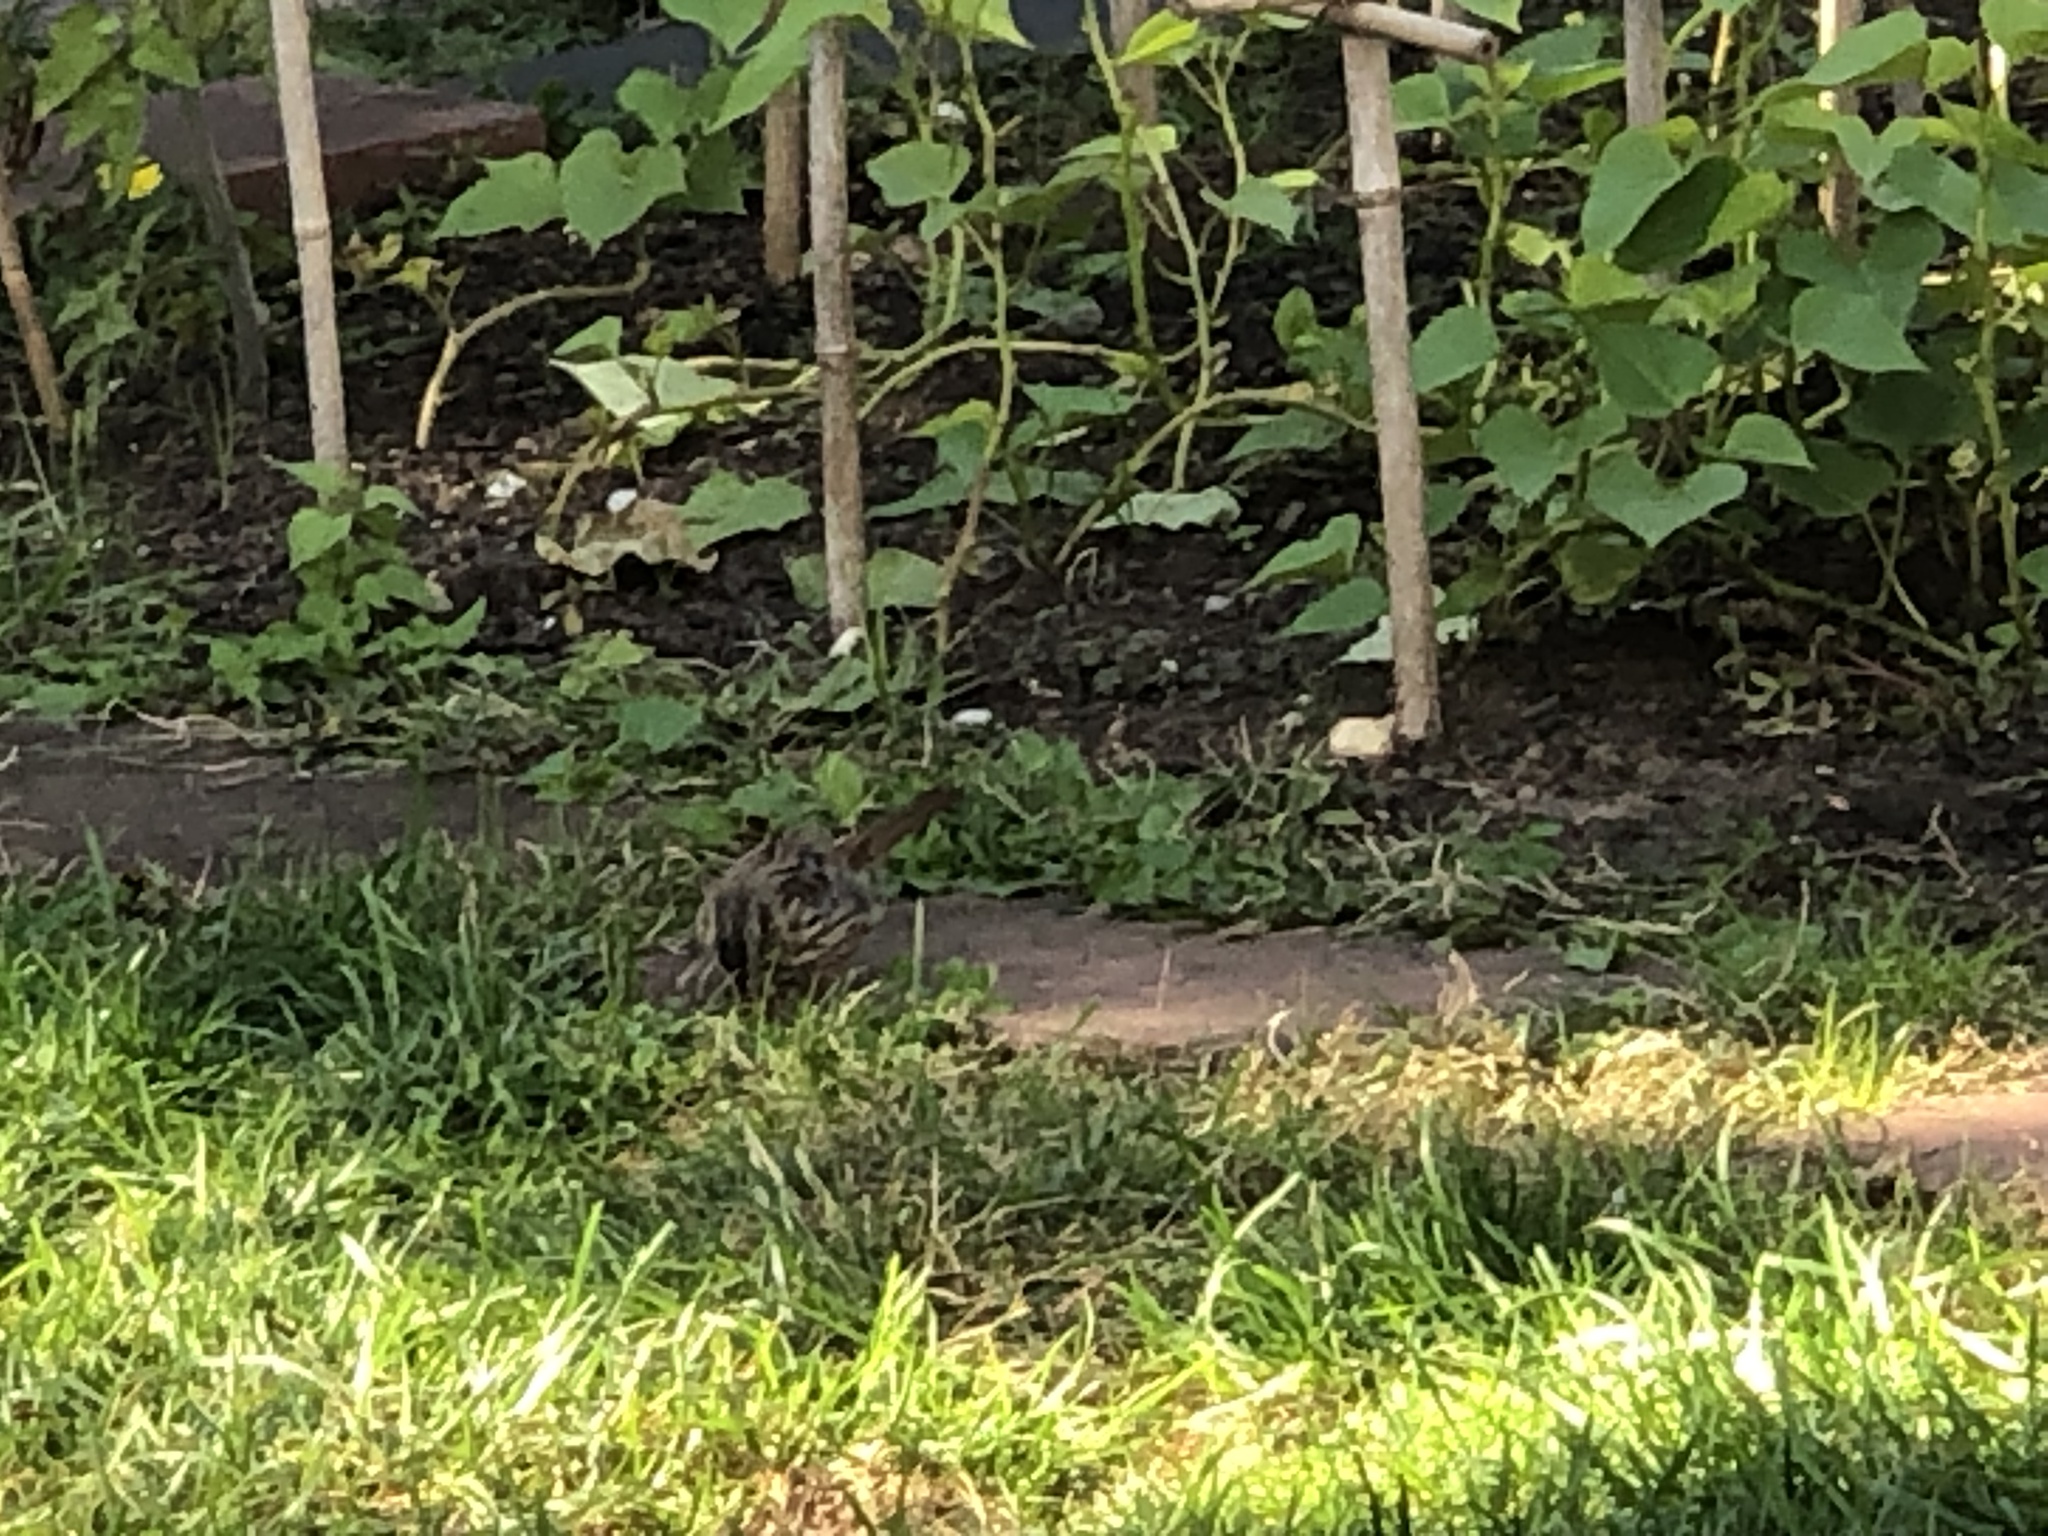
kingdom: Animalia
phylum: Chordata
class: Aves
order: Passeriformes
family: Passerellidae
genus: Melospiza
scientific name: Melospiza melodia
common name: Song sparrow
